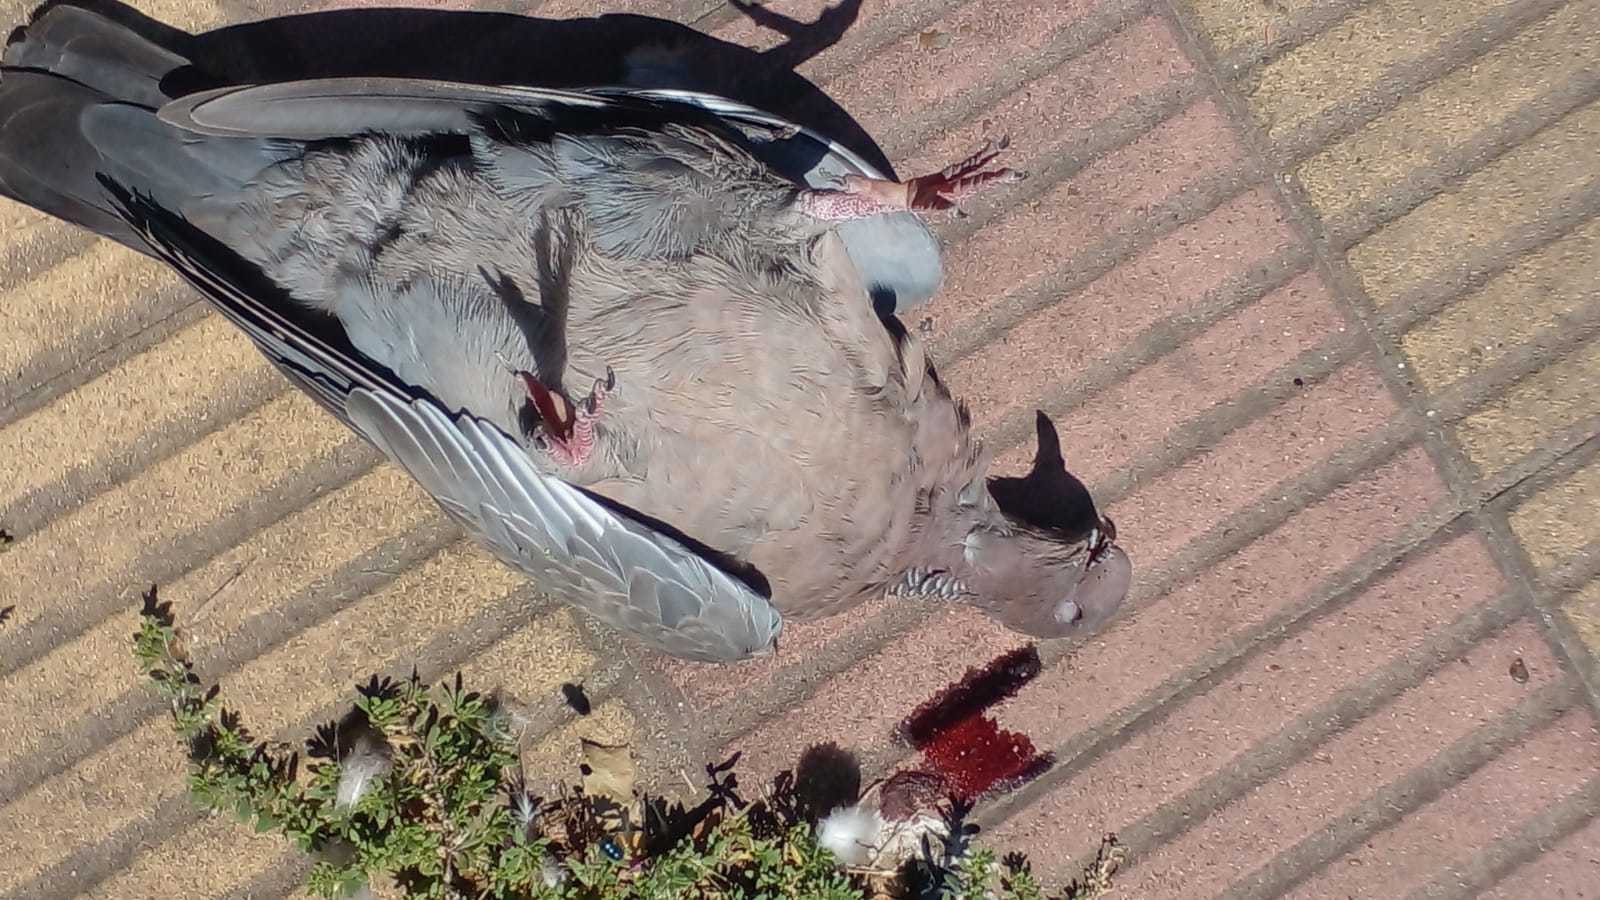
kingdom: Animalia
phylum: Chordata
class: Aves
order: Columbiformes
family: Columbidae
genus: Patagioenas
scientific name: Patagioenas picazuro
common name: Picazuro pigeon
